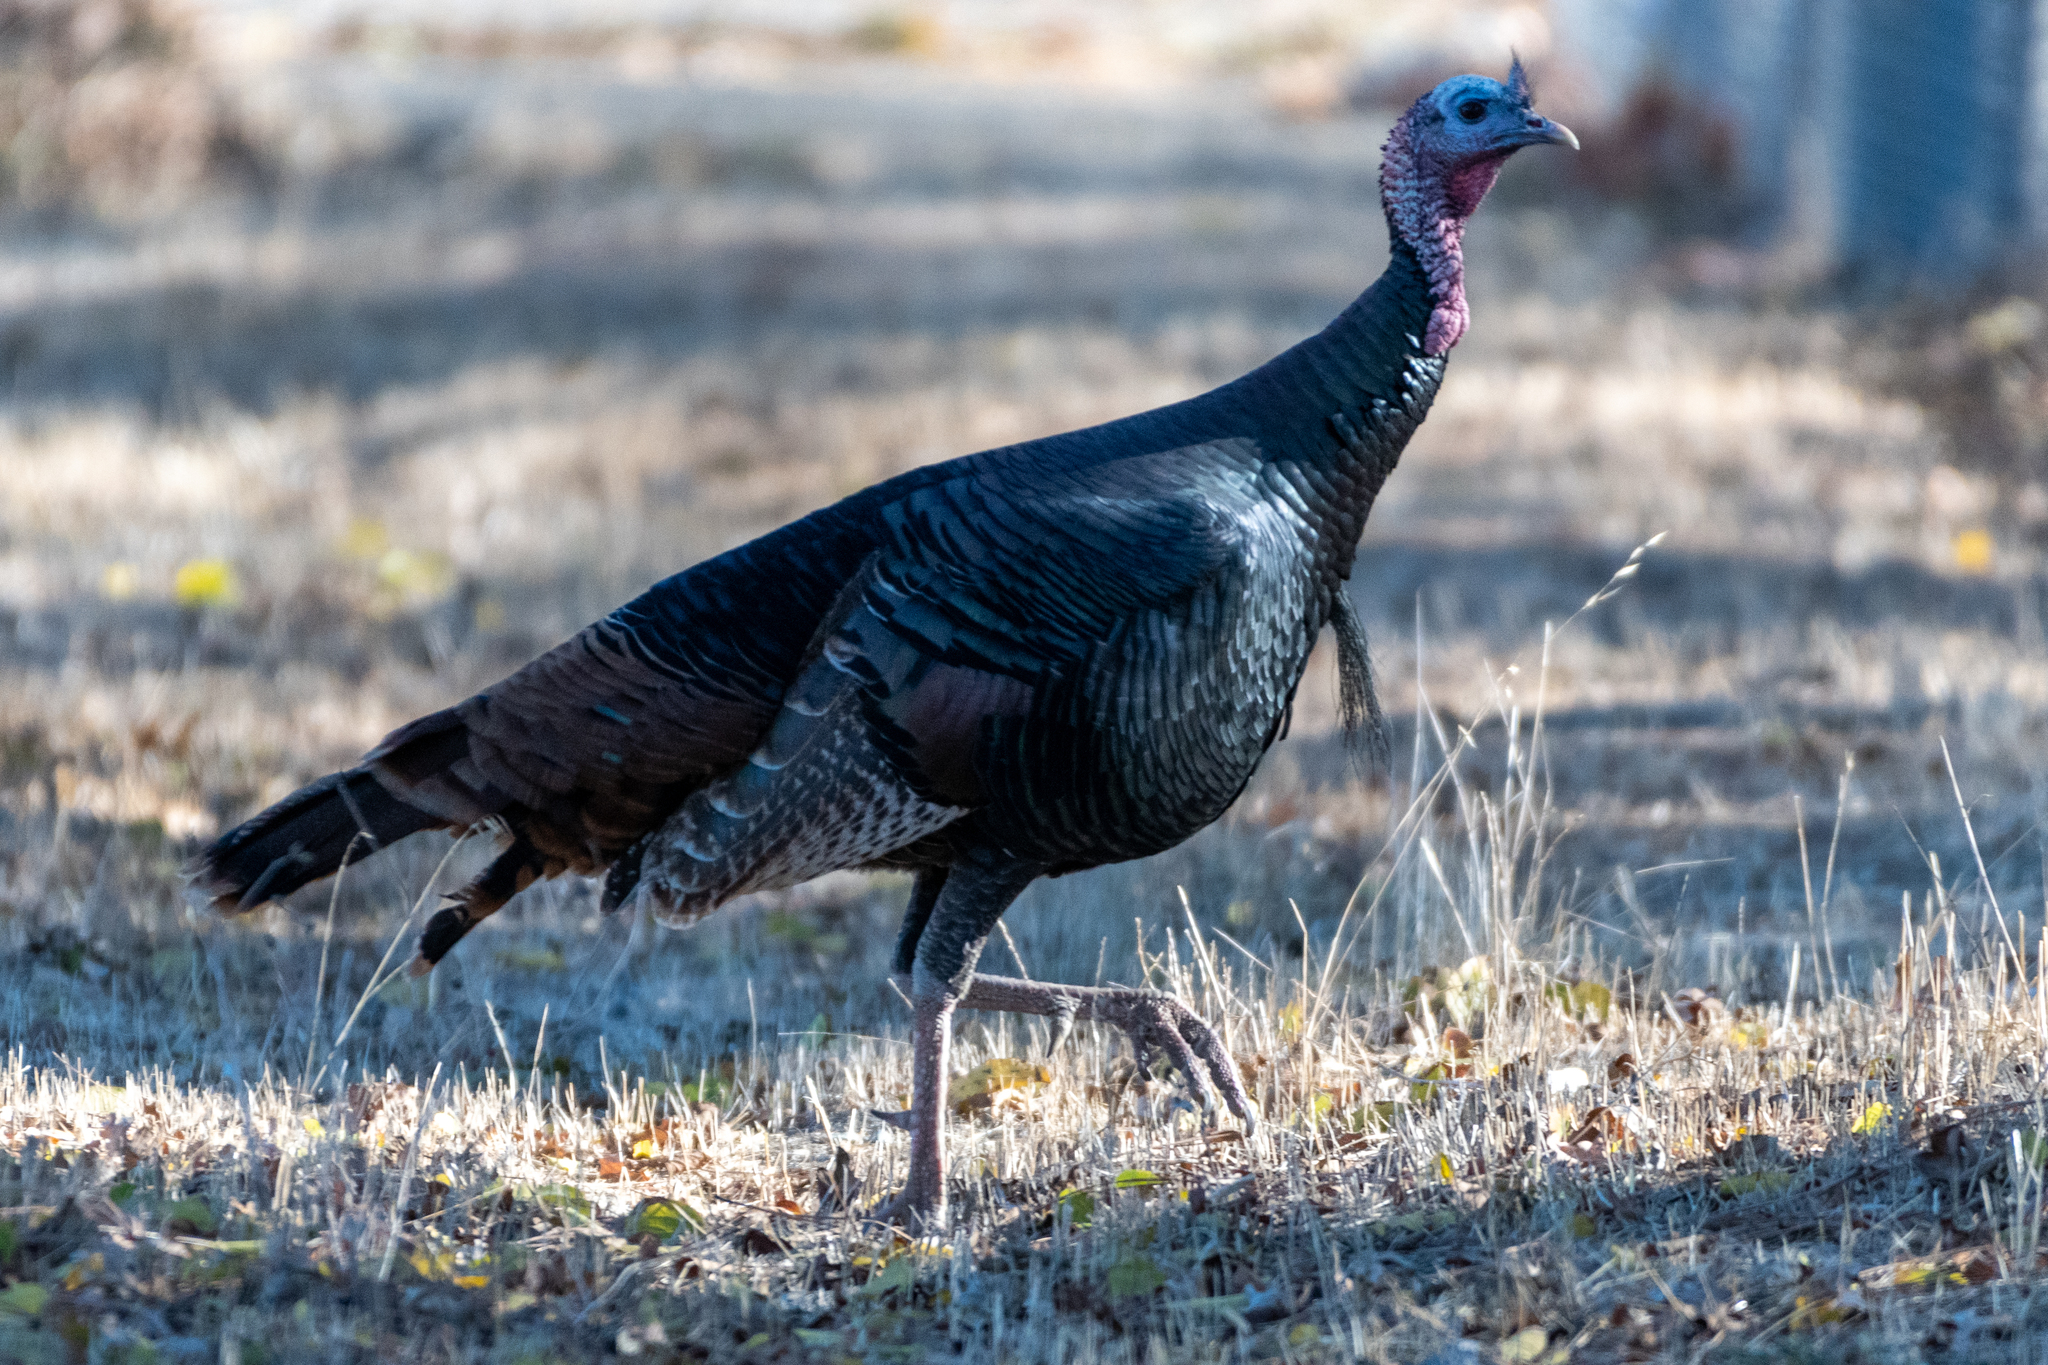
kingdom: Animalia
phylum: Chordata
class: Aves
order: Galliformes
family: Phasianidae
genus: Meleagris
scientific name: Meleagris gallopavo
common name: Wild turkey
